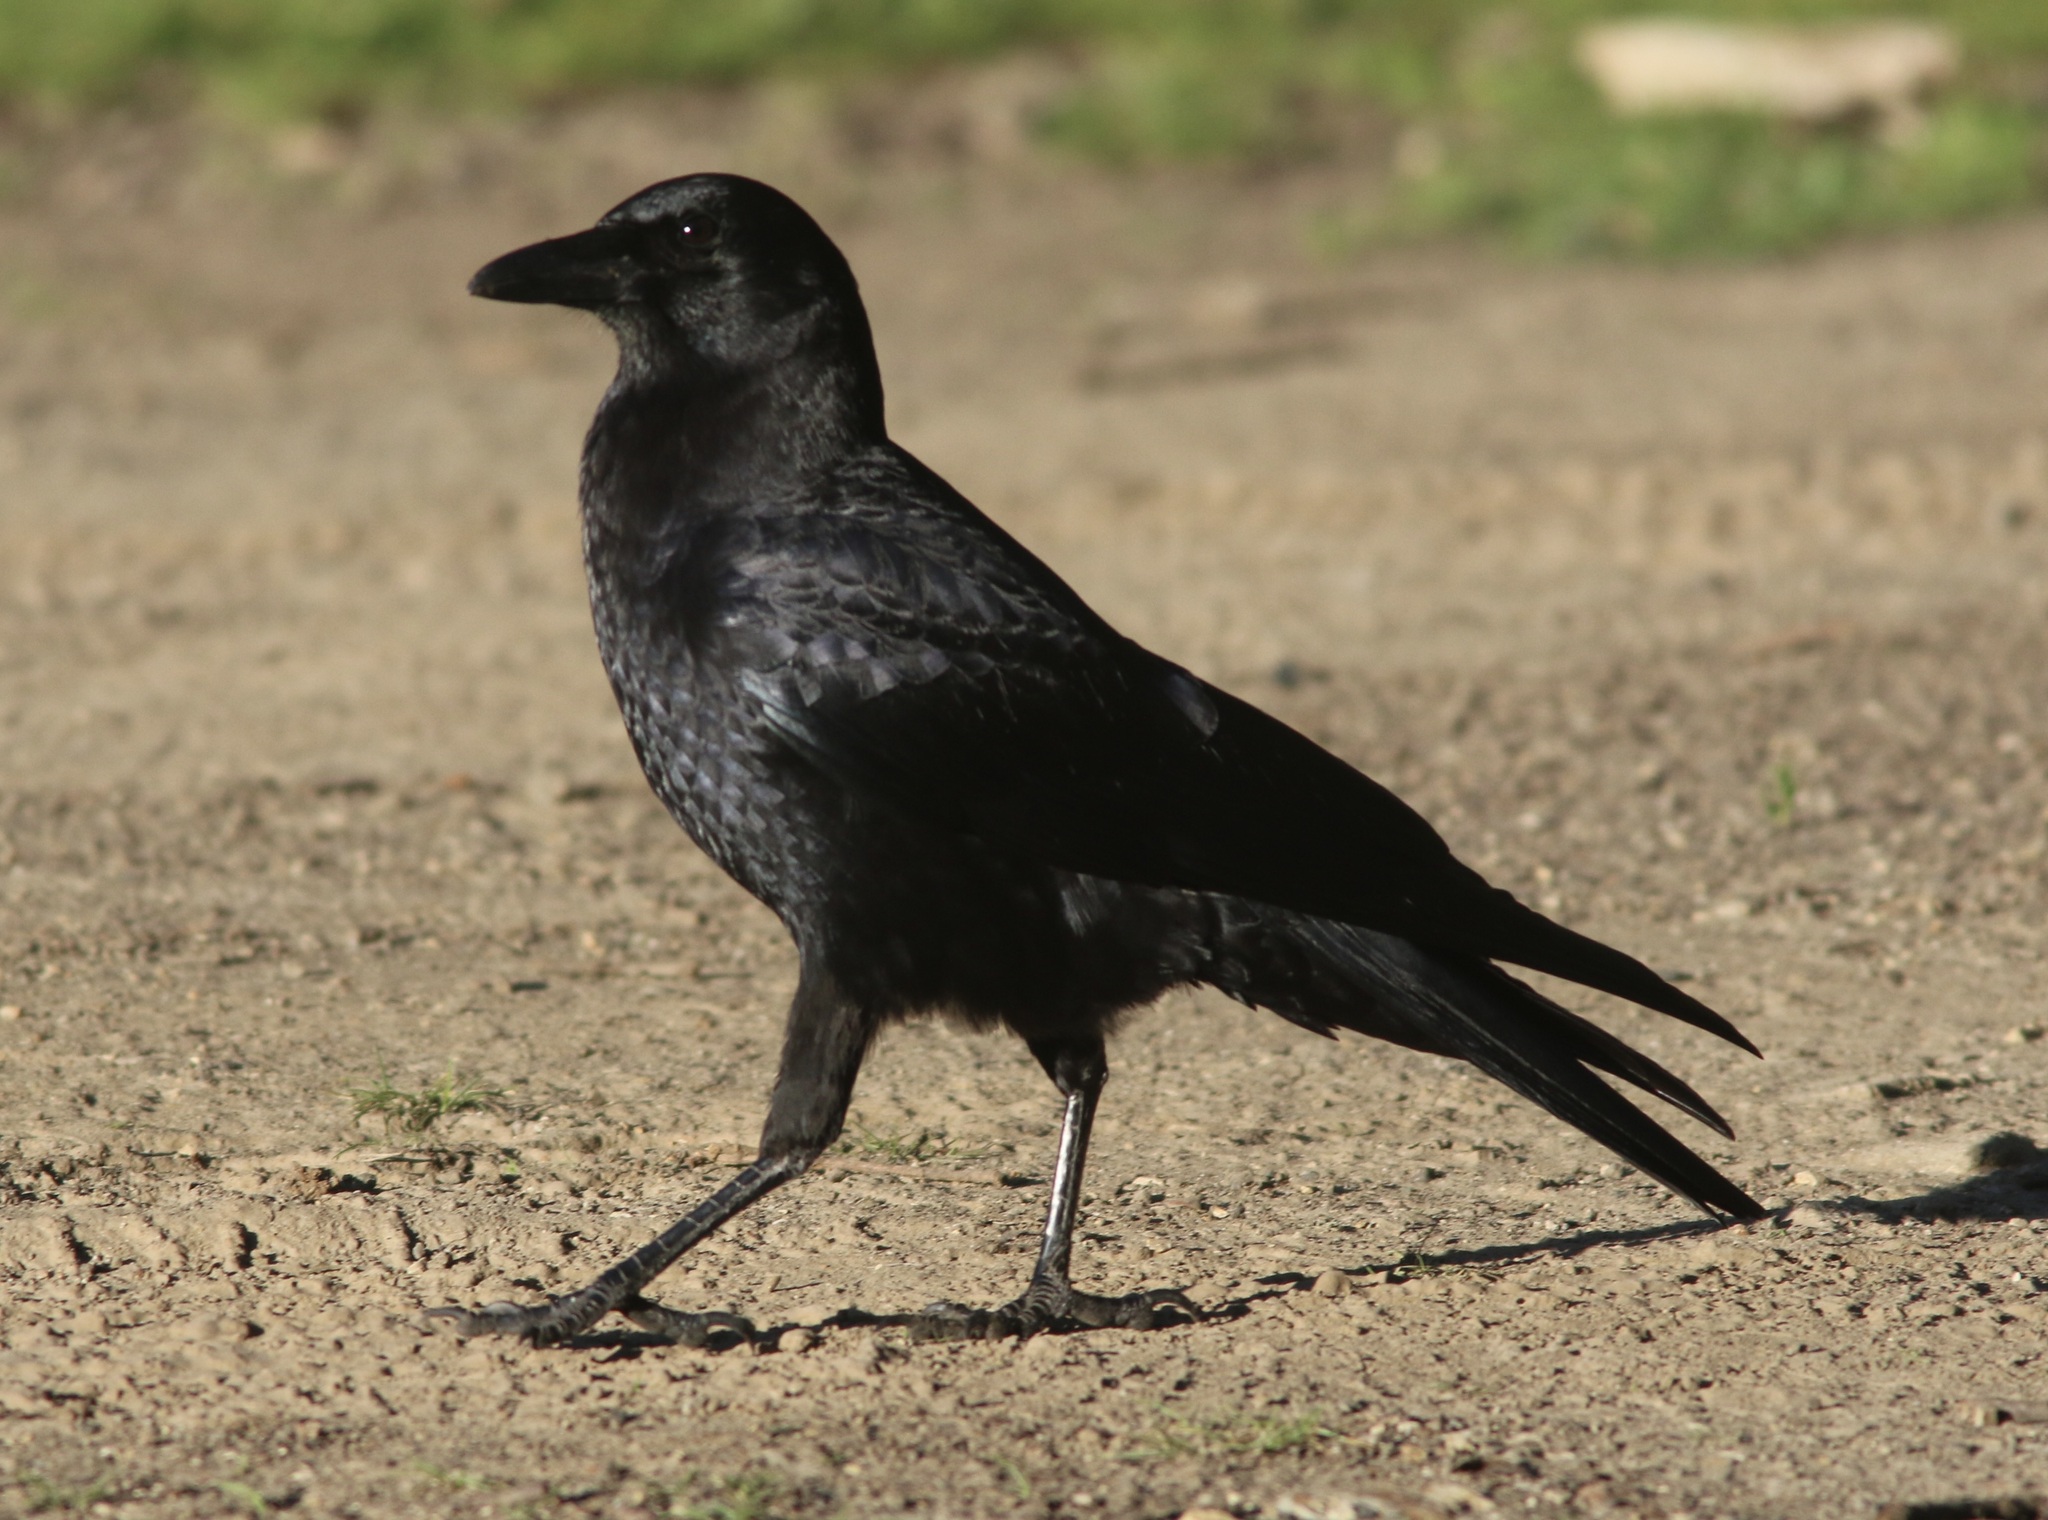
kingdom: Animalia
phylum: Chordata
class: Aves
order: Passeriformes
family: Corvidae
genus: Corvus
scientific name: Corvus brachyrhynchos
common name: American crow
